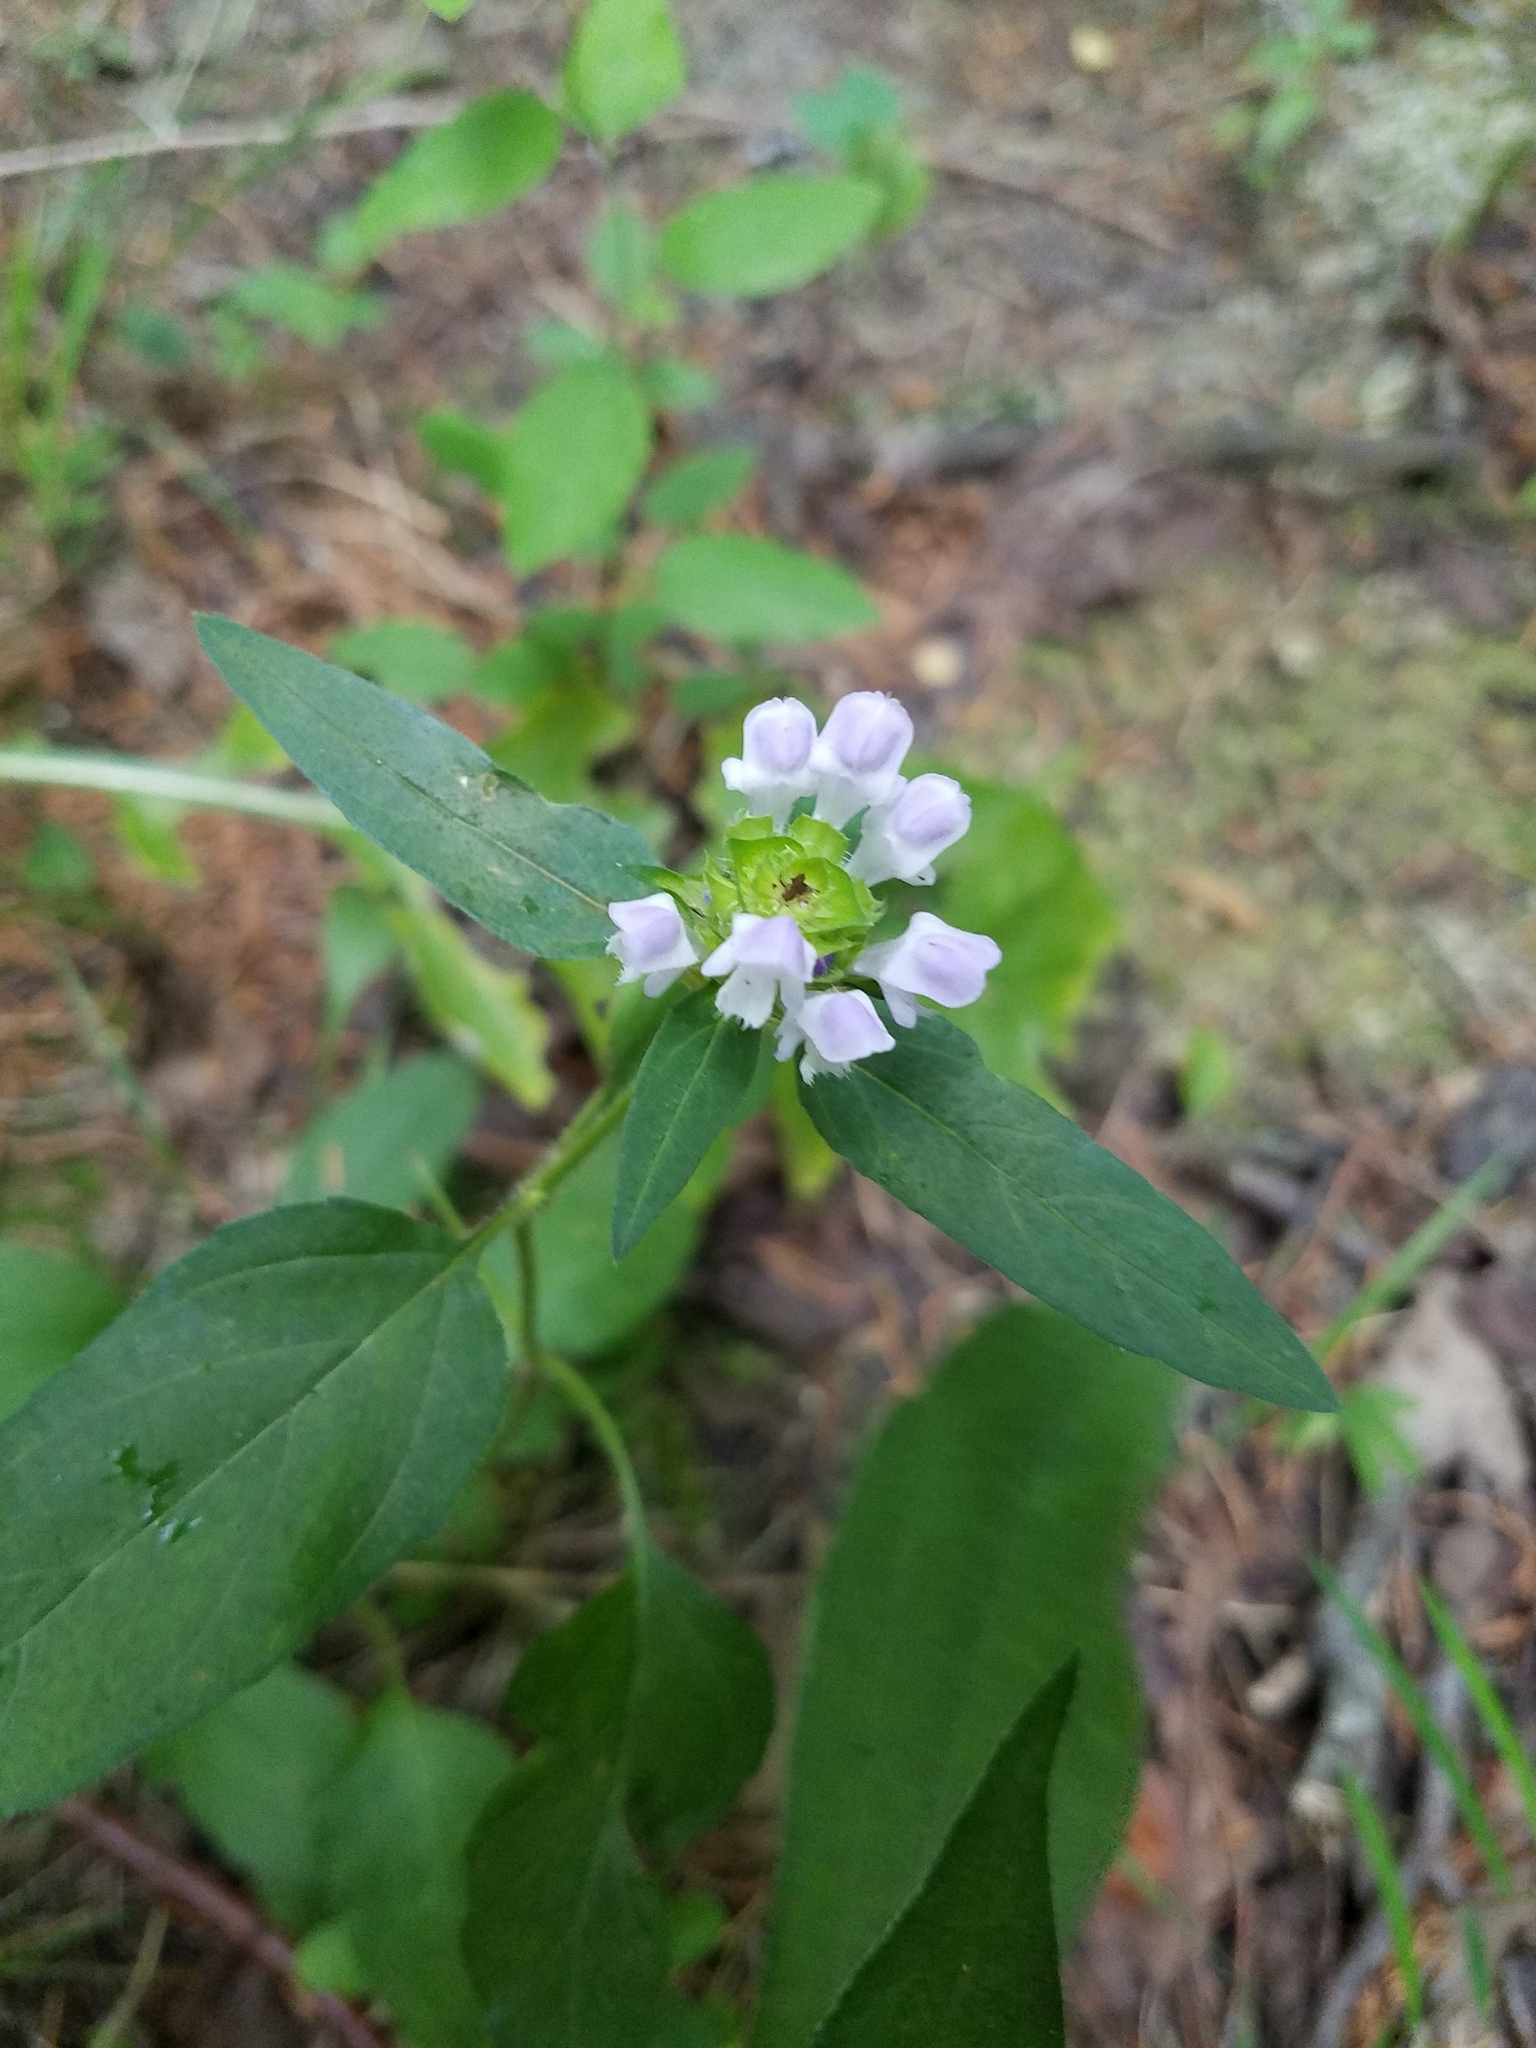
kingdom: Plantae
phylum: Tracheophyta
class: Magnoliopsida
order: Lamiales
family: Lamiaceae
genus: Prunella
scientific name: Prunella vulgaris
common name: Heal-all
